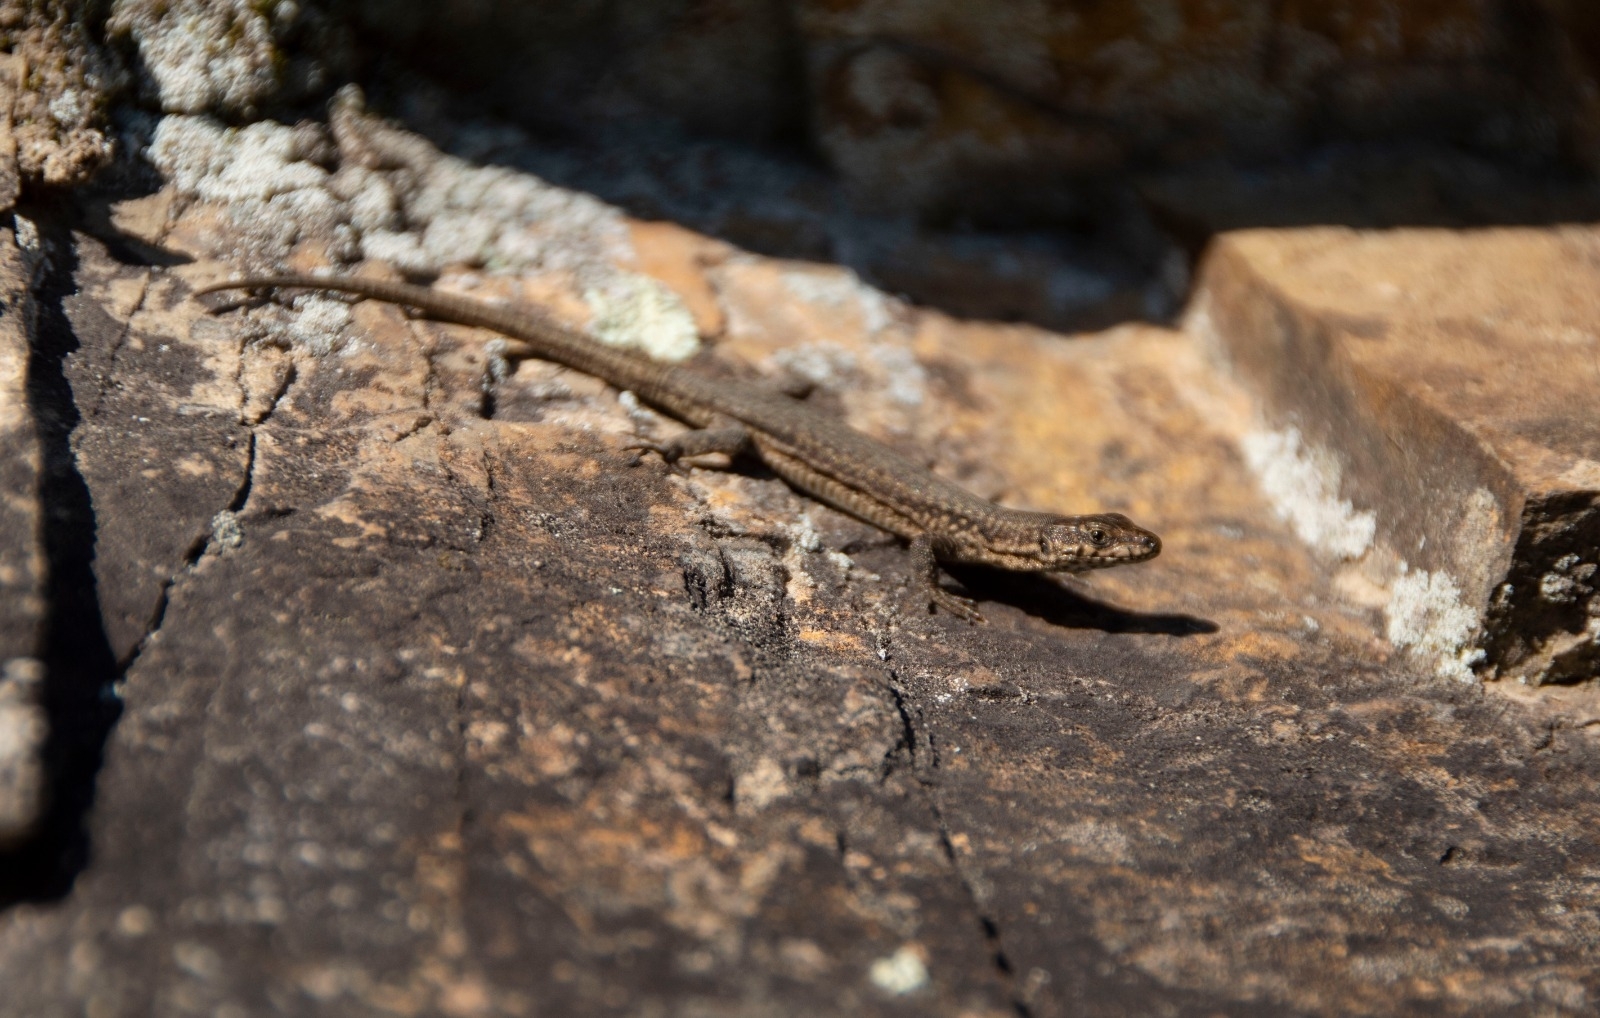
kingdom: Animalia
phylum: Chordata
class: Squamata
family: Lacertidae
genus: Podarcis
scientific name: Podarcis liolepis
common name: Catalonian wall lizard
